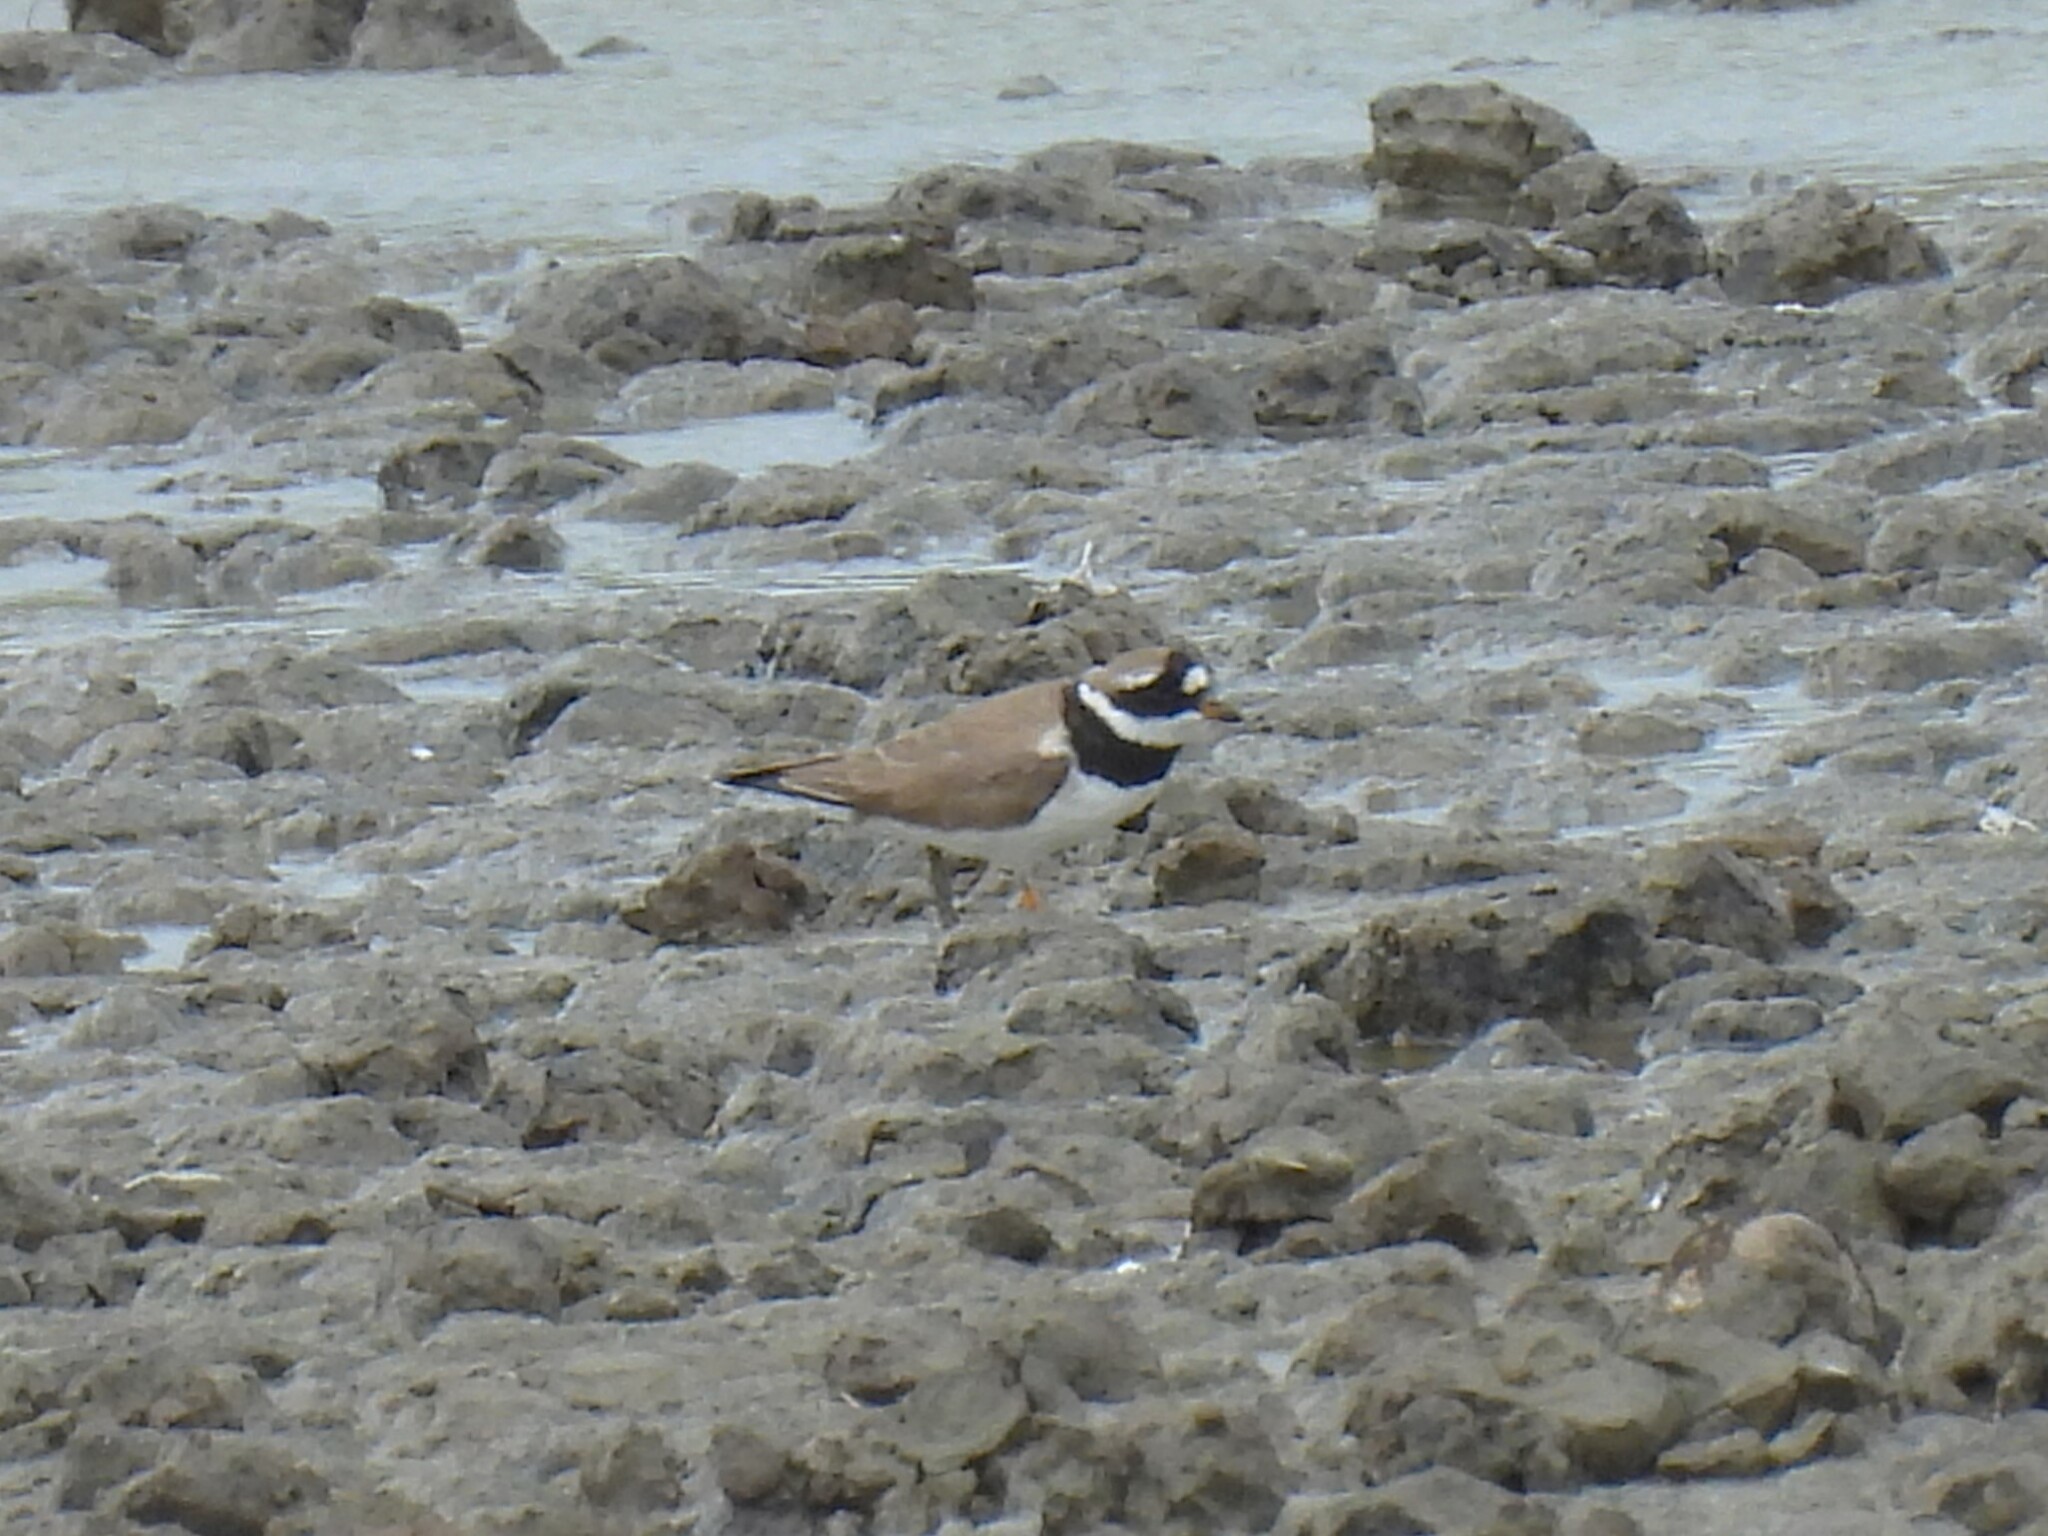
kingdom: Animalia
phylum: Chordata
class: Aves
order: Charadriiformes
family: Charadriidae
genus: Charadrius
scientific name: Charadrius hiaticula
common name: Common ringed plover
